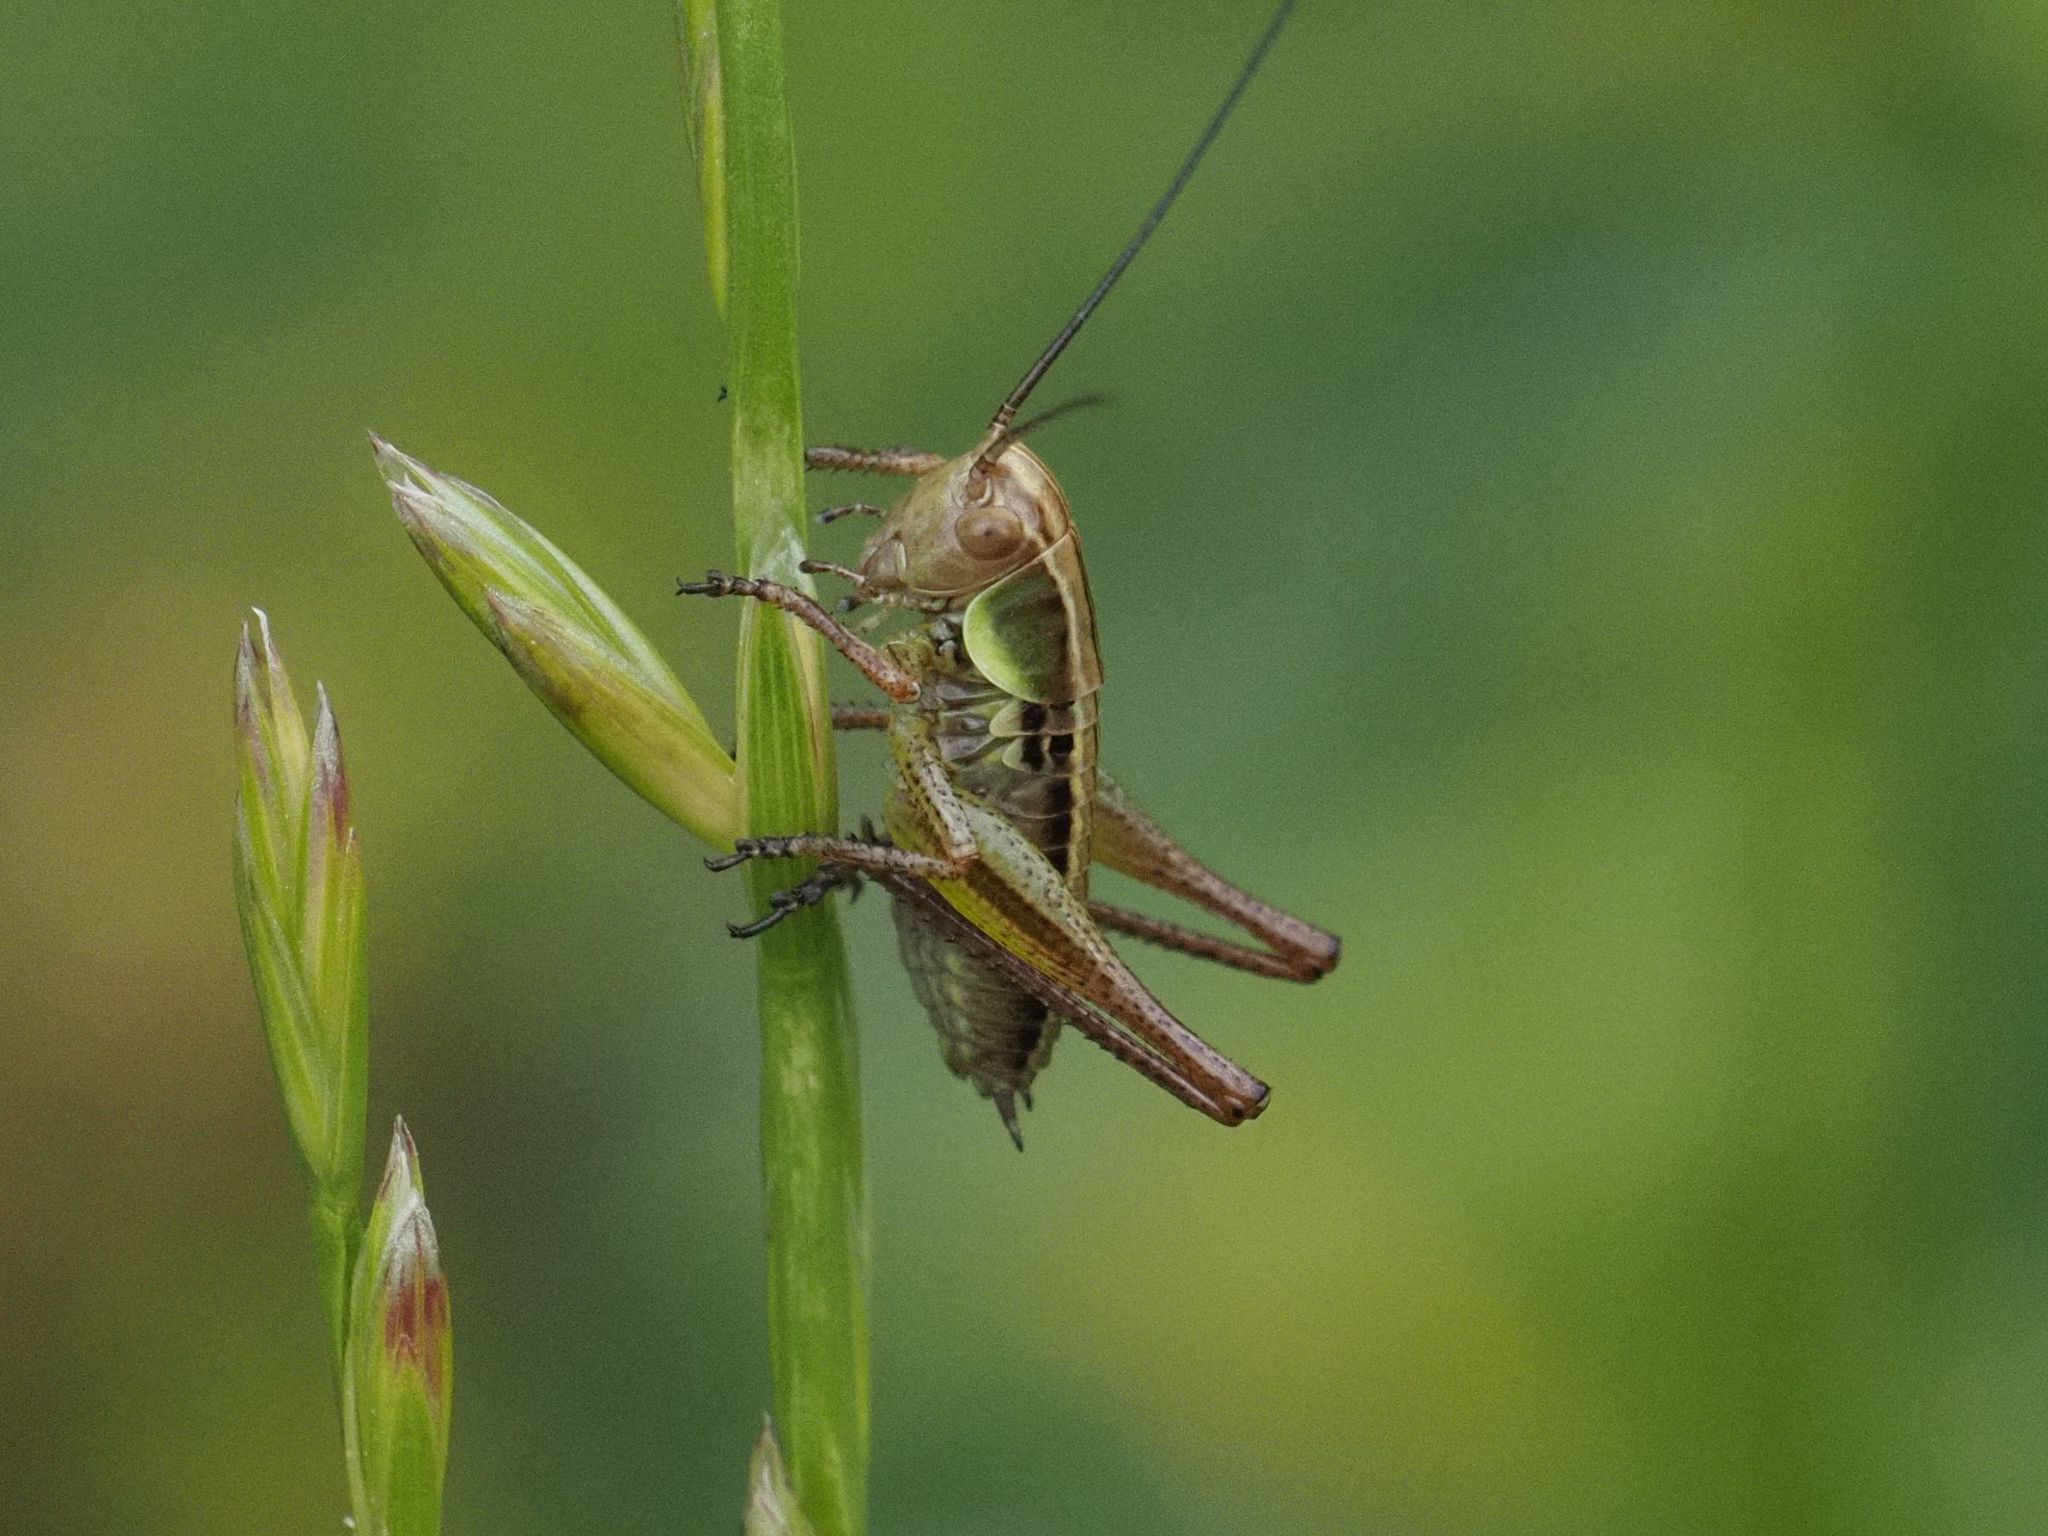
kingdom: Animalia
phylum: Arthropoda
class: Insecta
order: Orthoptera
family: Tettigoniidae
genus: Roeseliana
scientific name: Roeseliana roeselii
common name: Roesel's bush cricket
